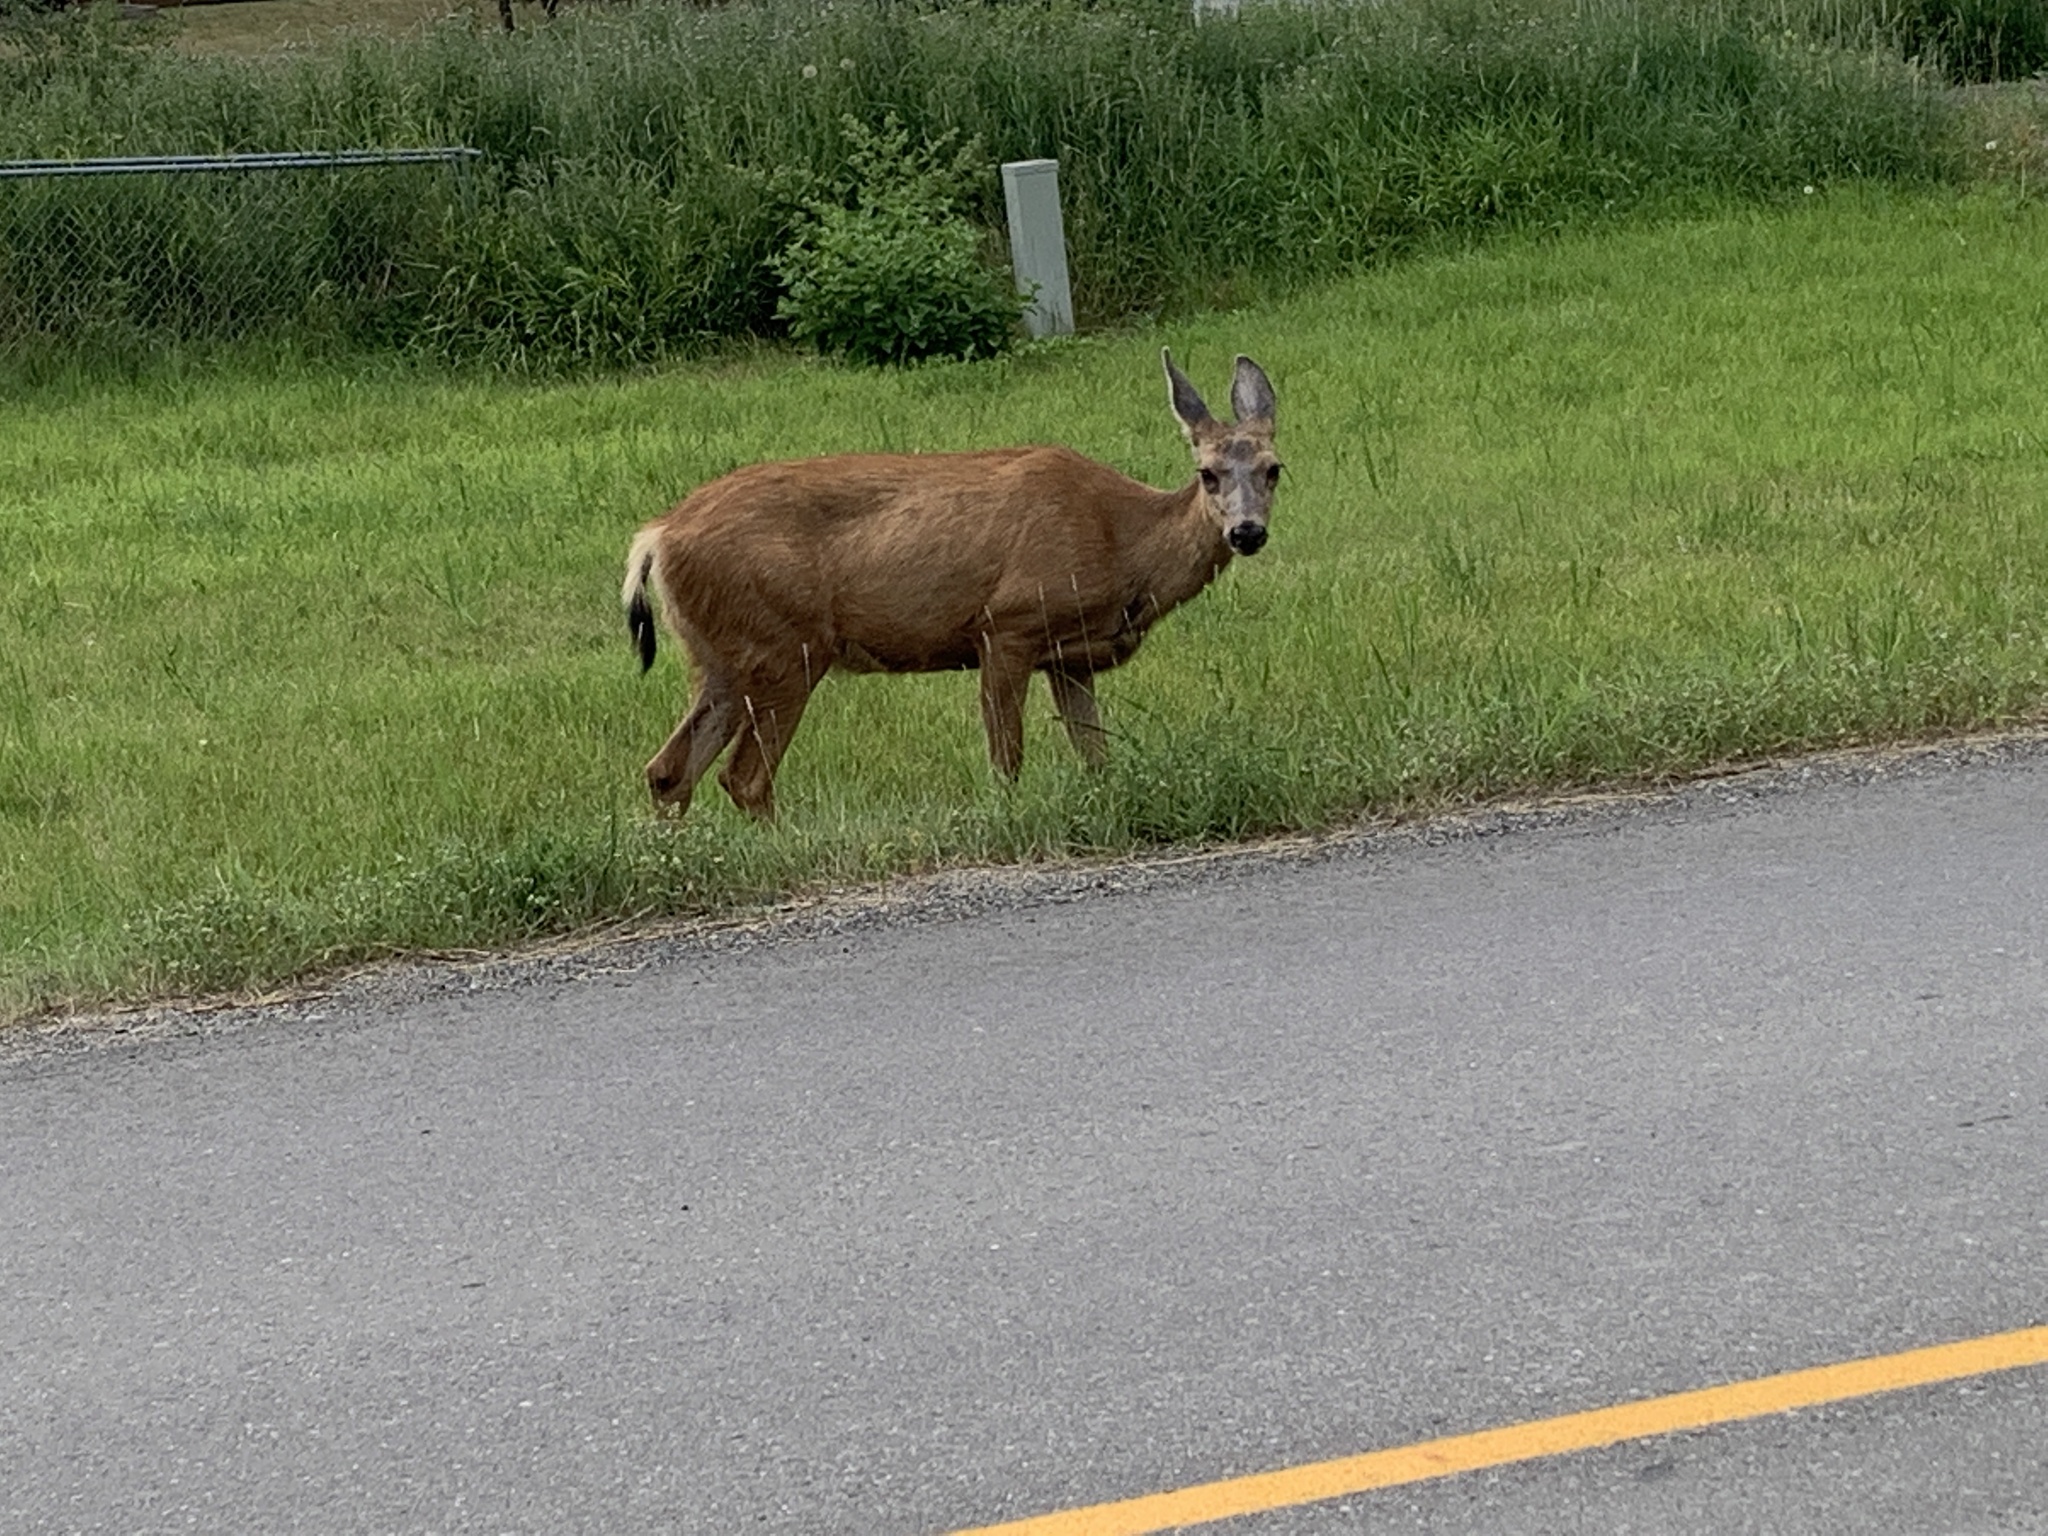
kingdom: Animalia
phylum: Chordata
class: Mammalia
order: Artiodactyla
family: Cervidae
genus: Odocoileus
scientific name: Odocoileus hemionus
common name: Mule deer
